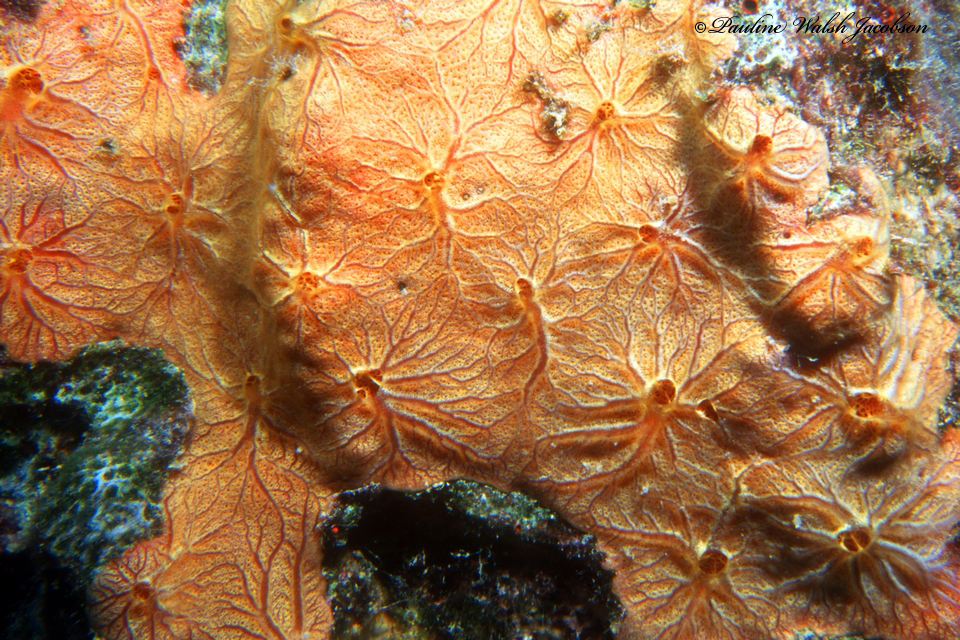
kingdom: Animalia
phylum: Porifera
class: Demospongiae
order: Poecilosclerida
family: Microcionidae
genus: Clathria
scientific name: Clathria curacaoensis
